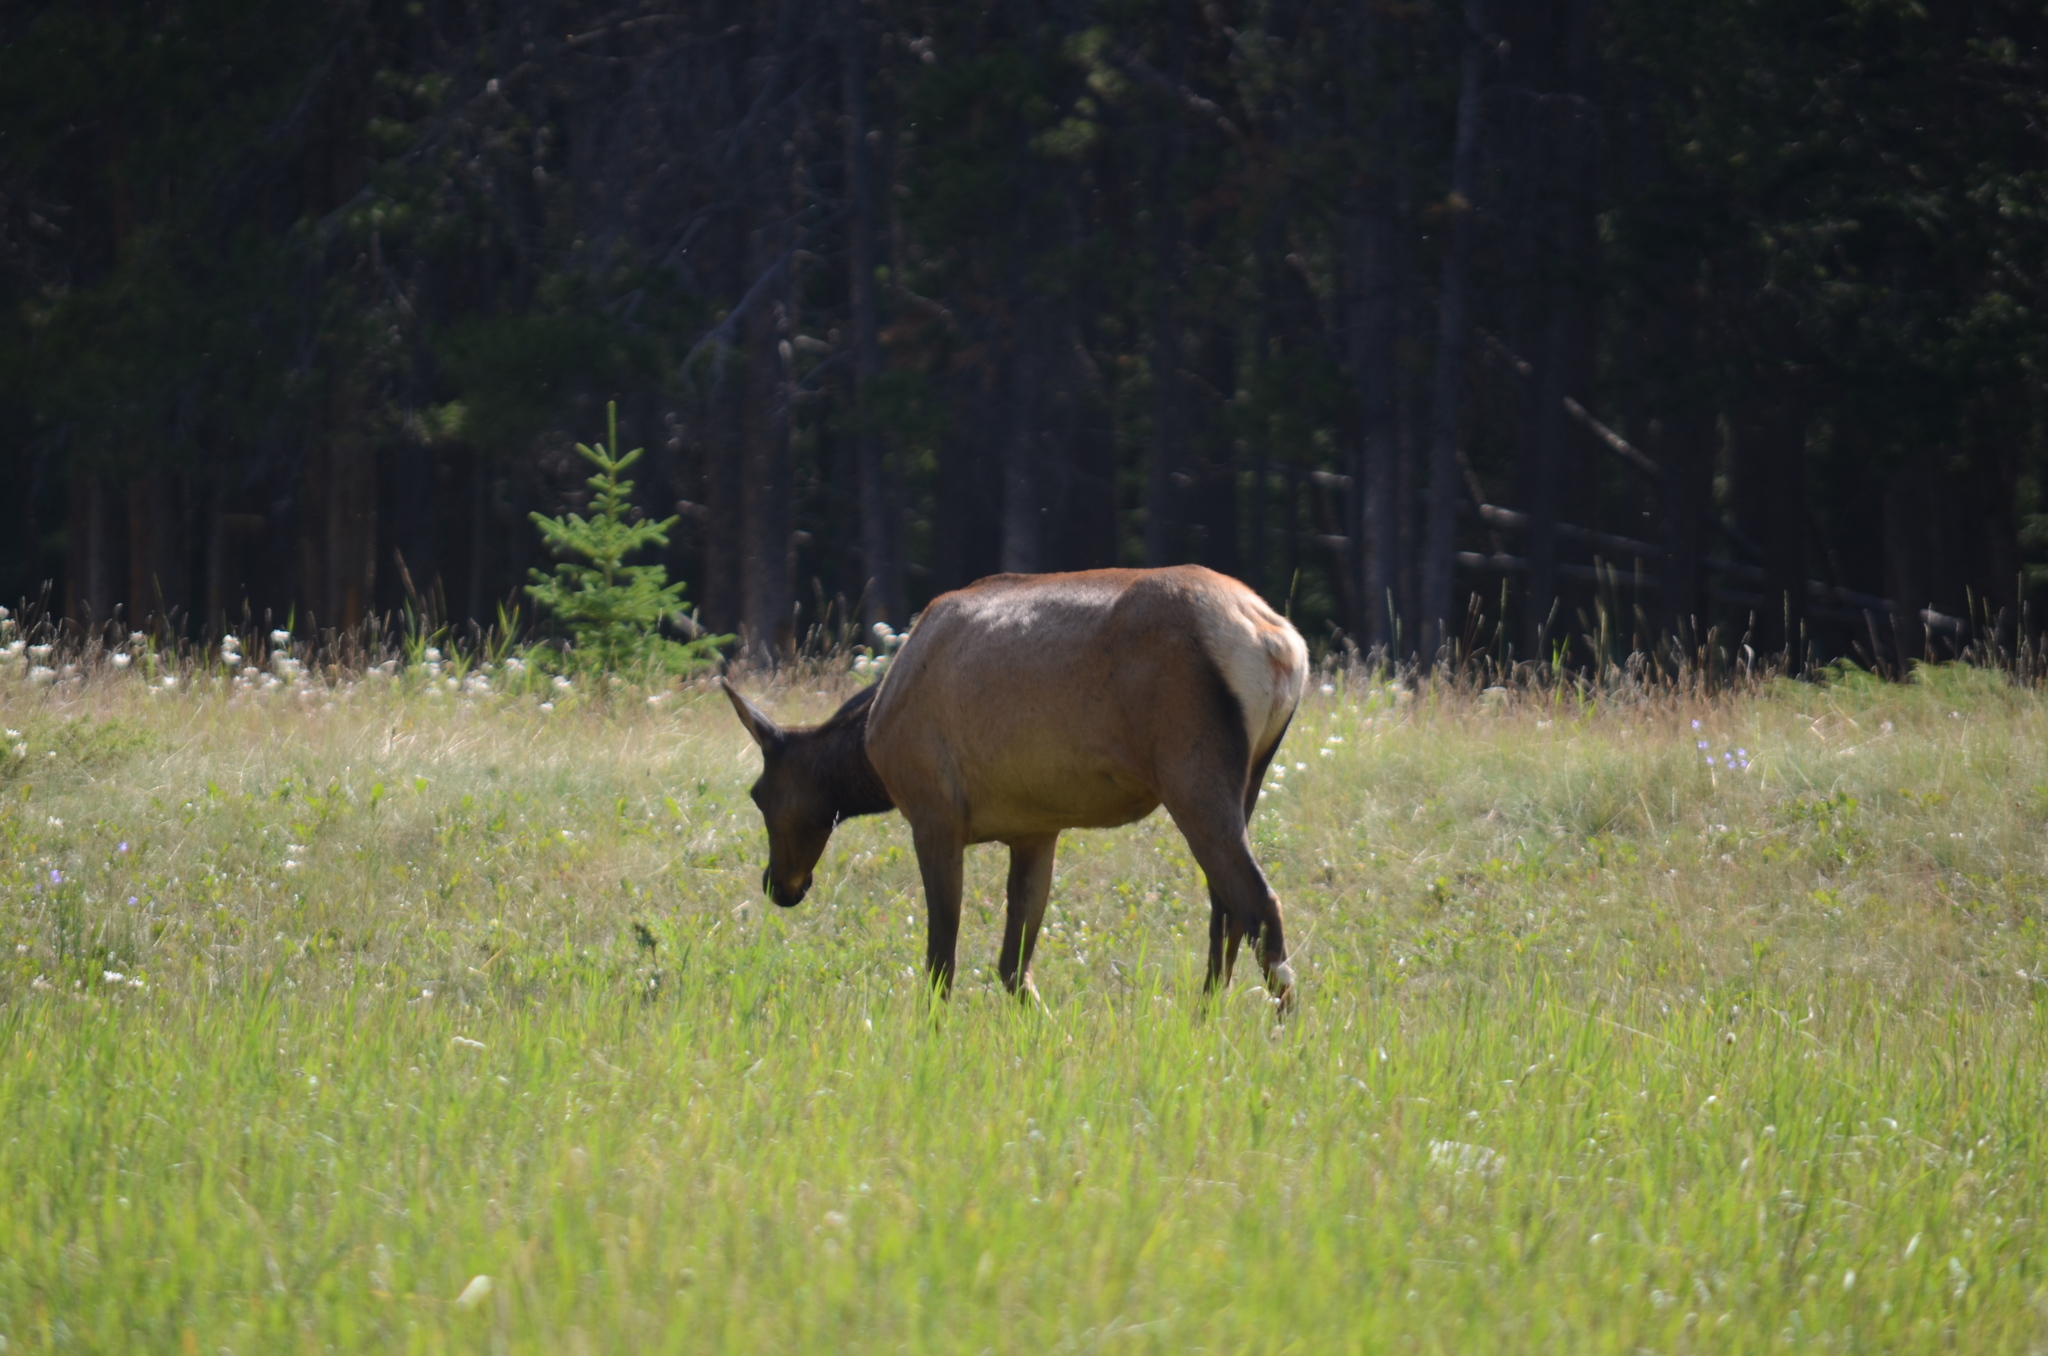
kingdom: Animalia
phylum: Chordata
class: Mammalia
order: Artiodactyla
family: Cervidae
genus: Cervus
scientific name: Cervus elaphus
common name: Red deer
